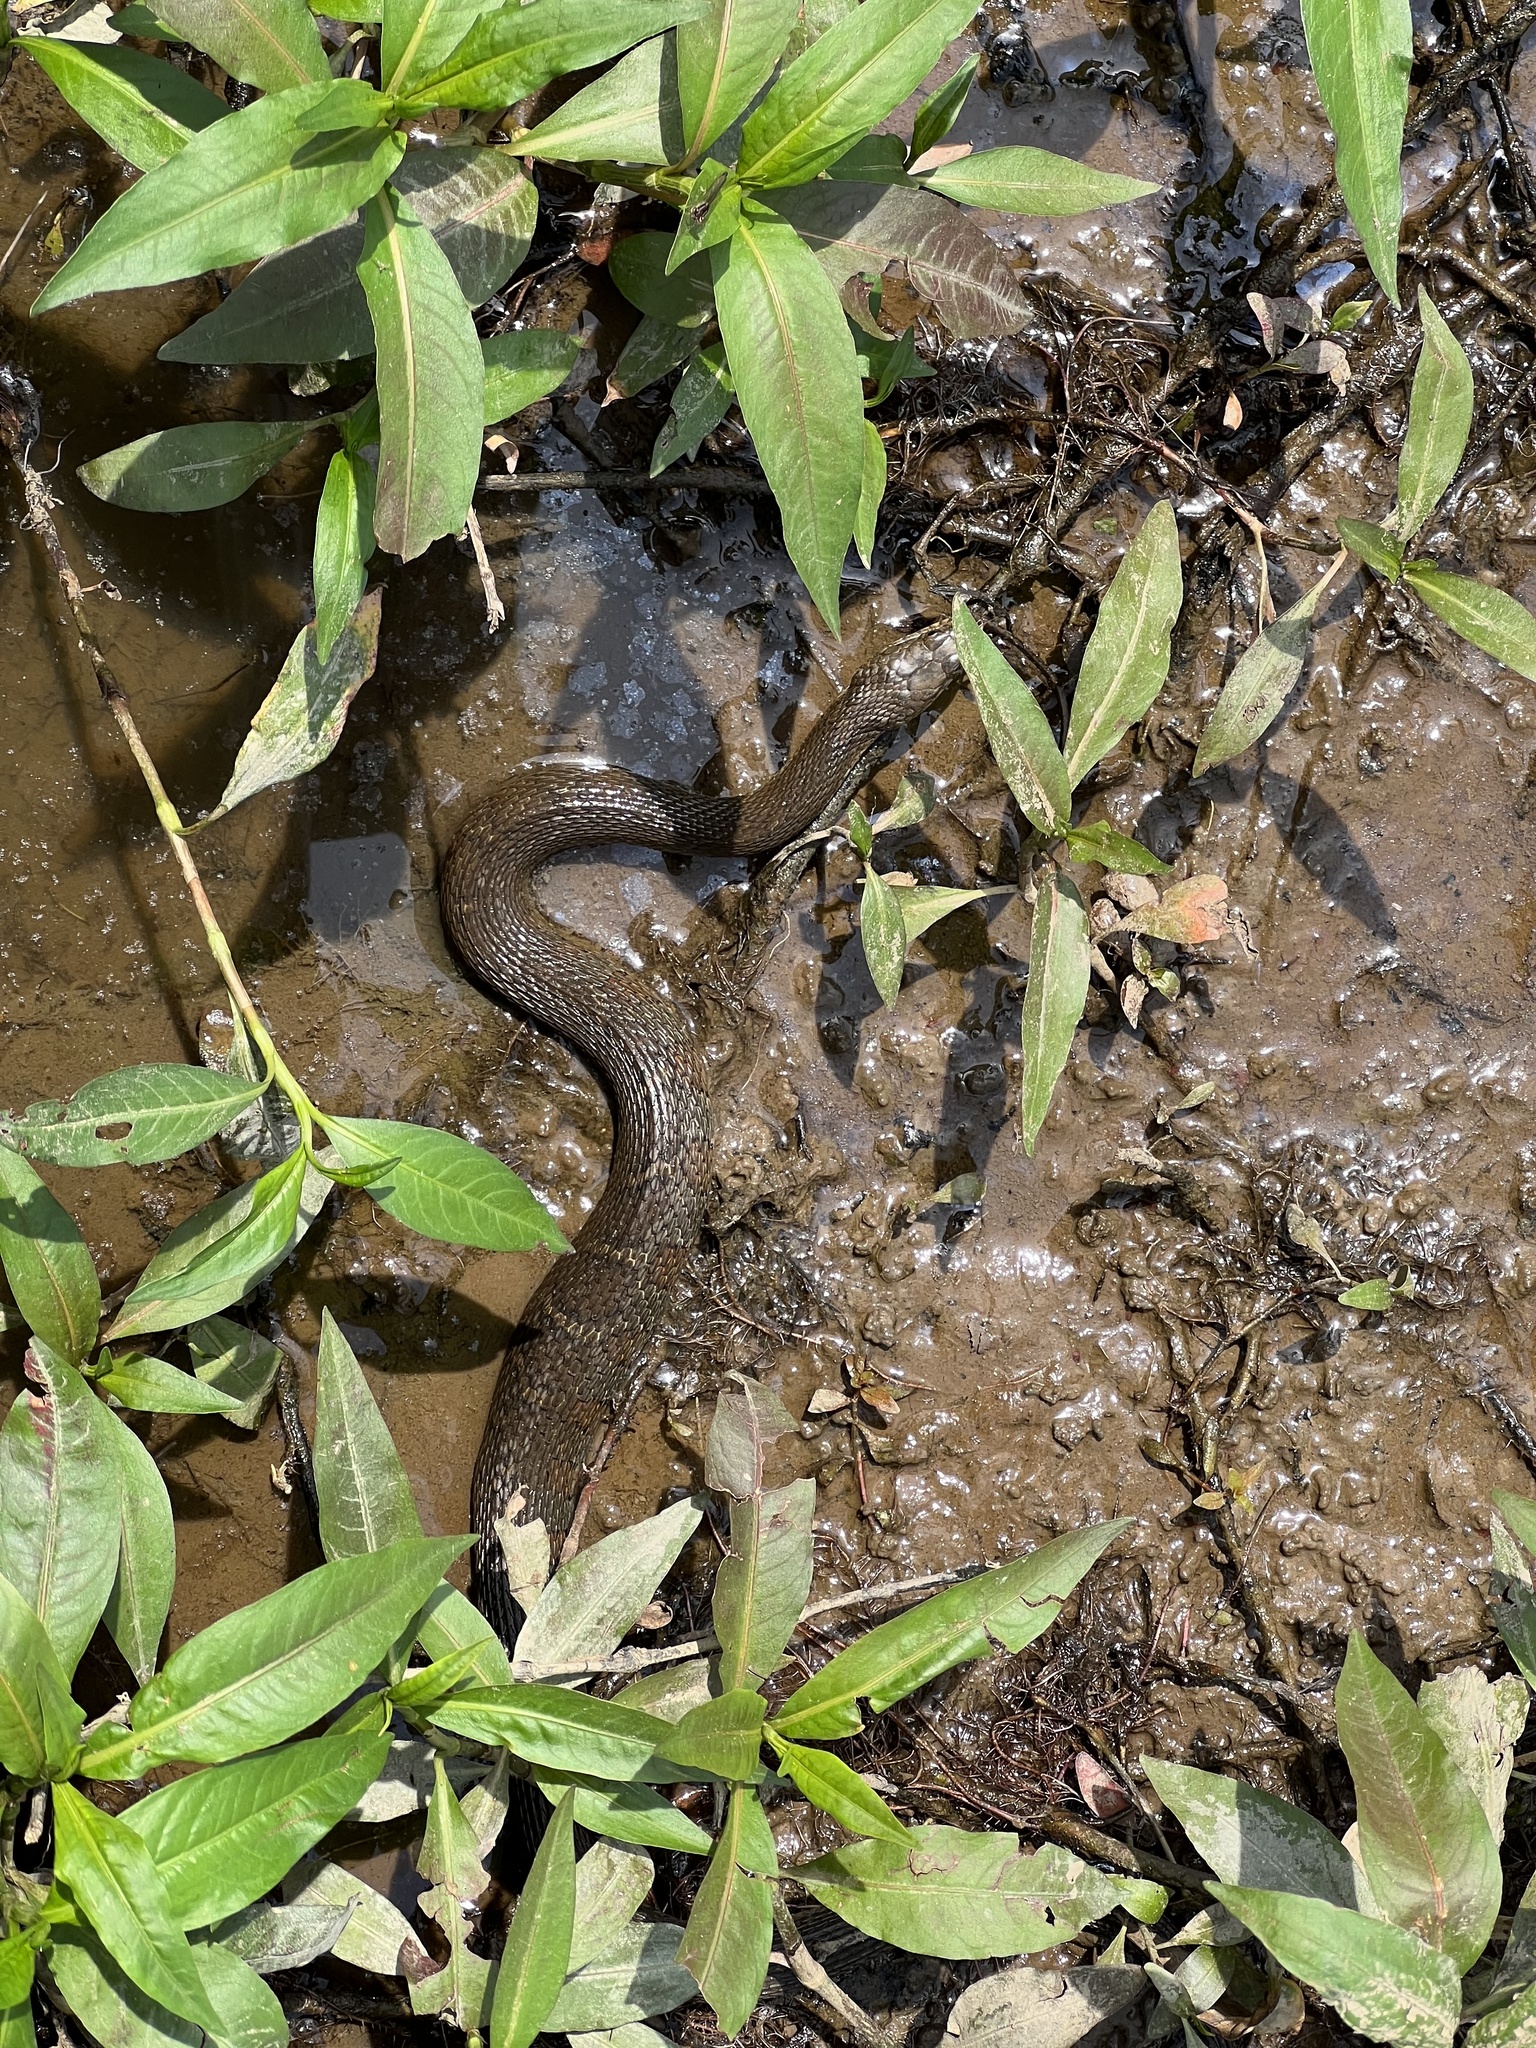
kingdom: Animalia
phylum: Chordata
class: Squamata
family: Colubridae
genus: Nerodia
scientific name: Nerodia sipedon
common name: Northern water snake
